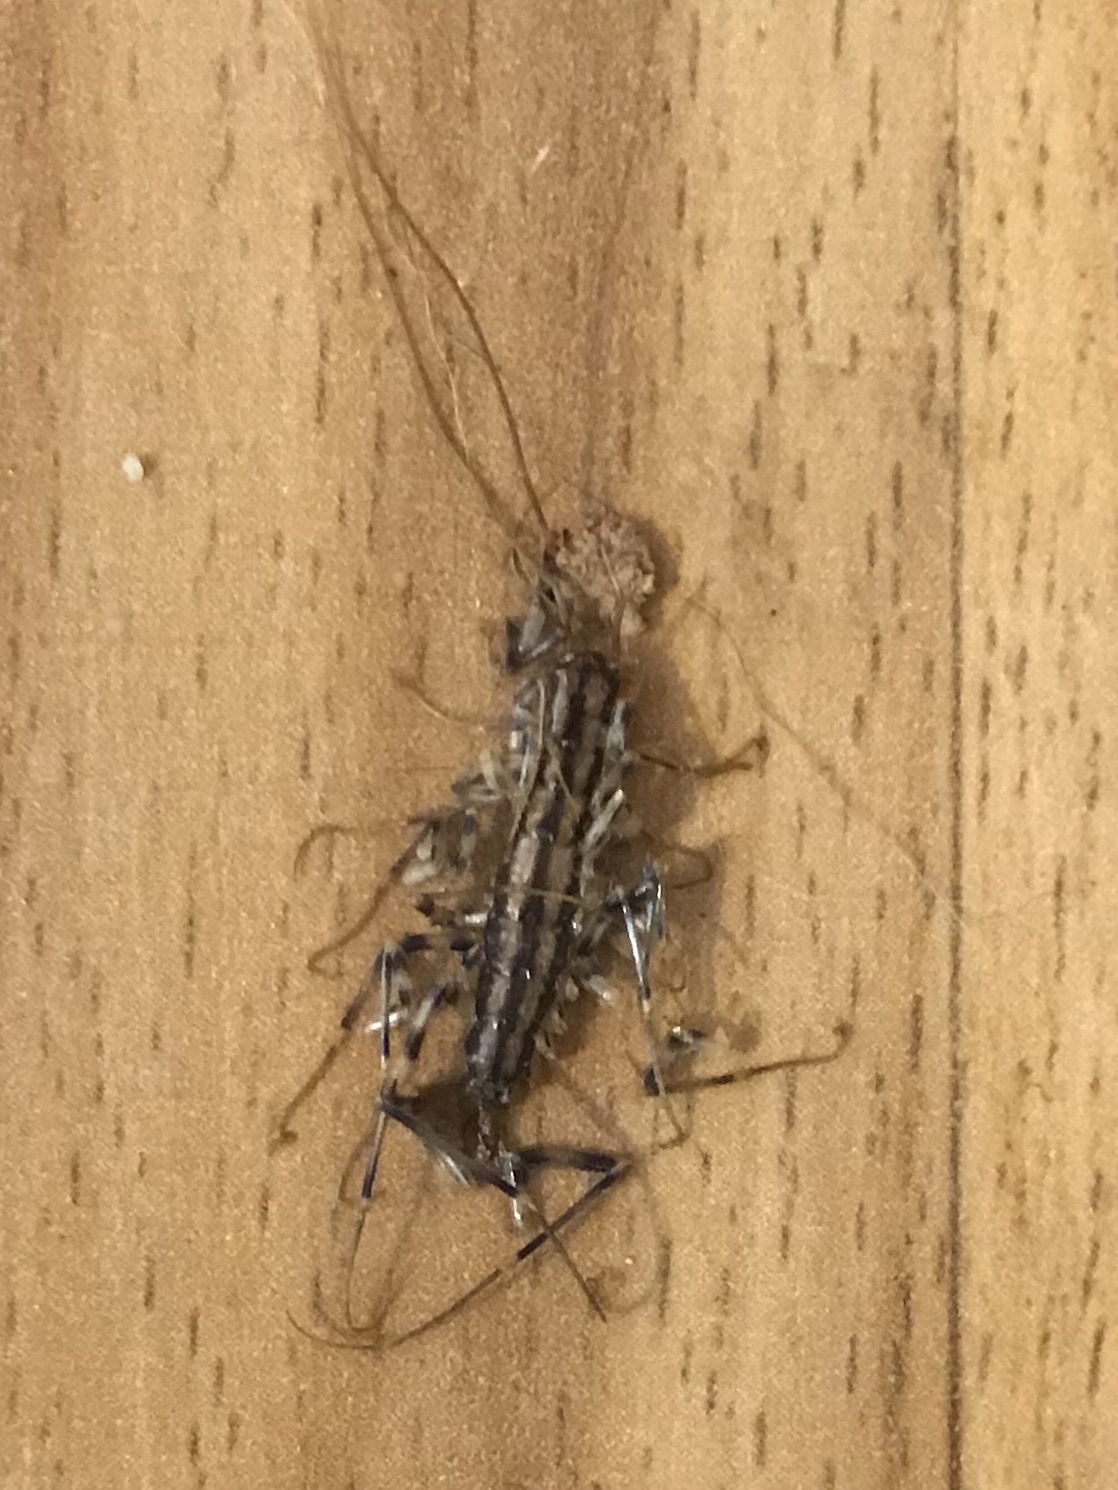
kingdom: Animalia
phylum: Arthropoda
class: Chilopoda
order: Scutigeromorpha
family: Scutigeridae
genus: Scutigera
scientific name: Scutigera coleoptrata
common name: House centipede
